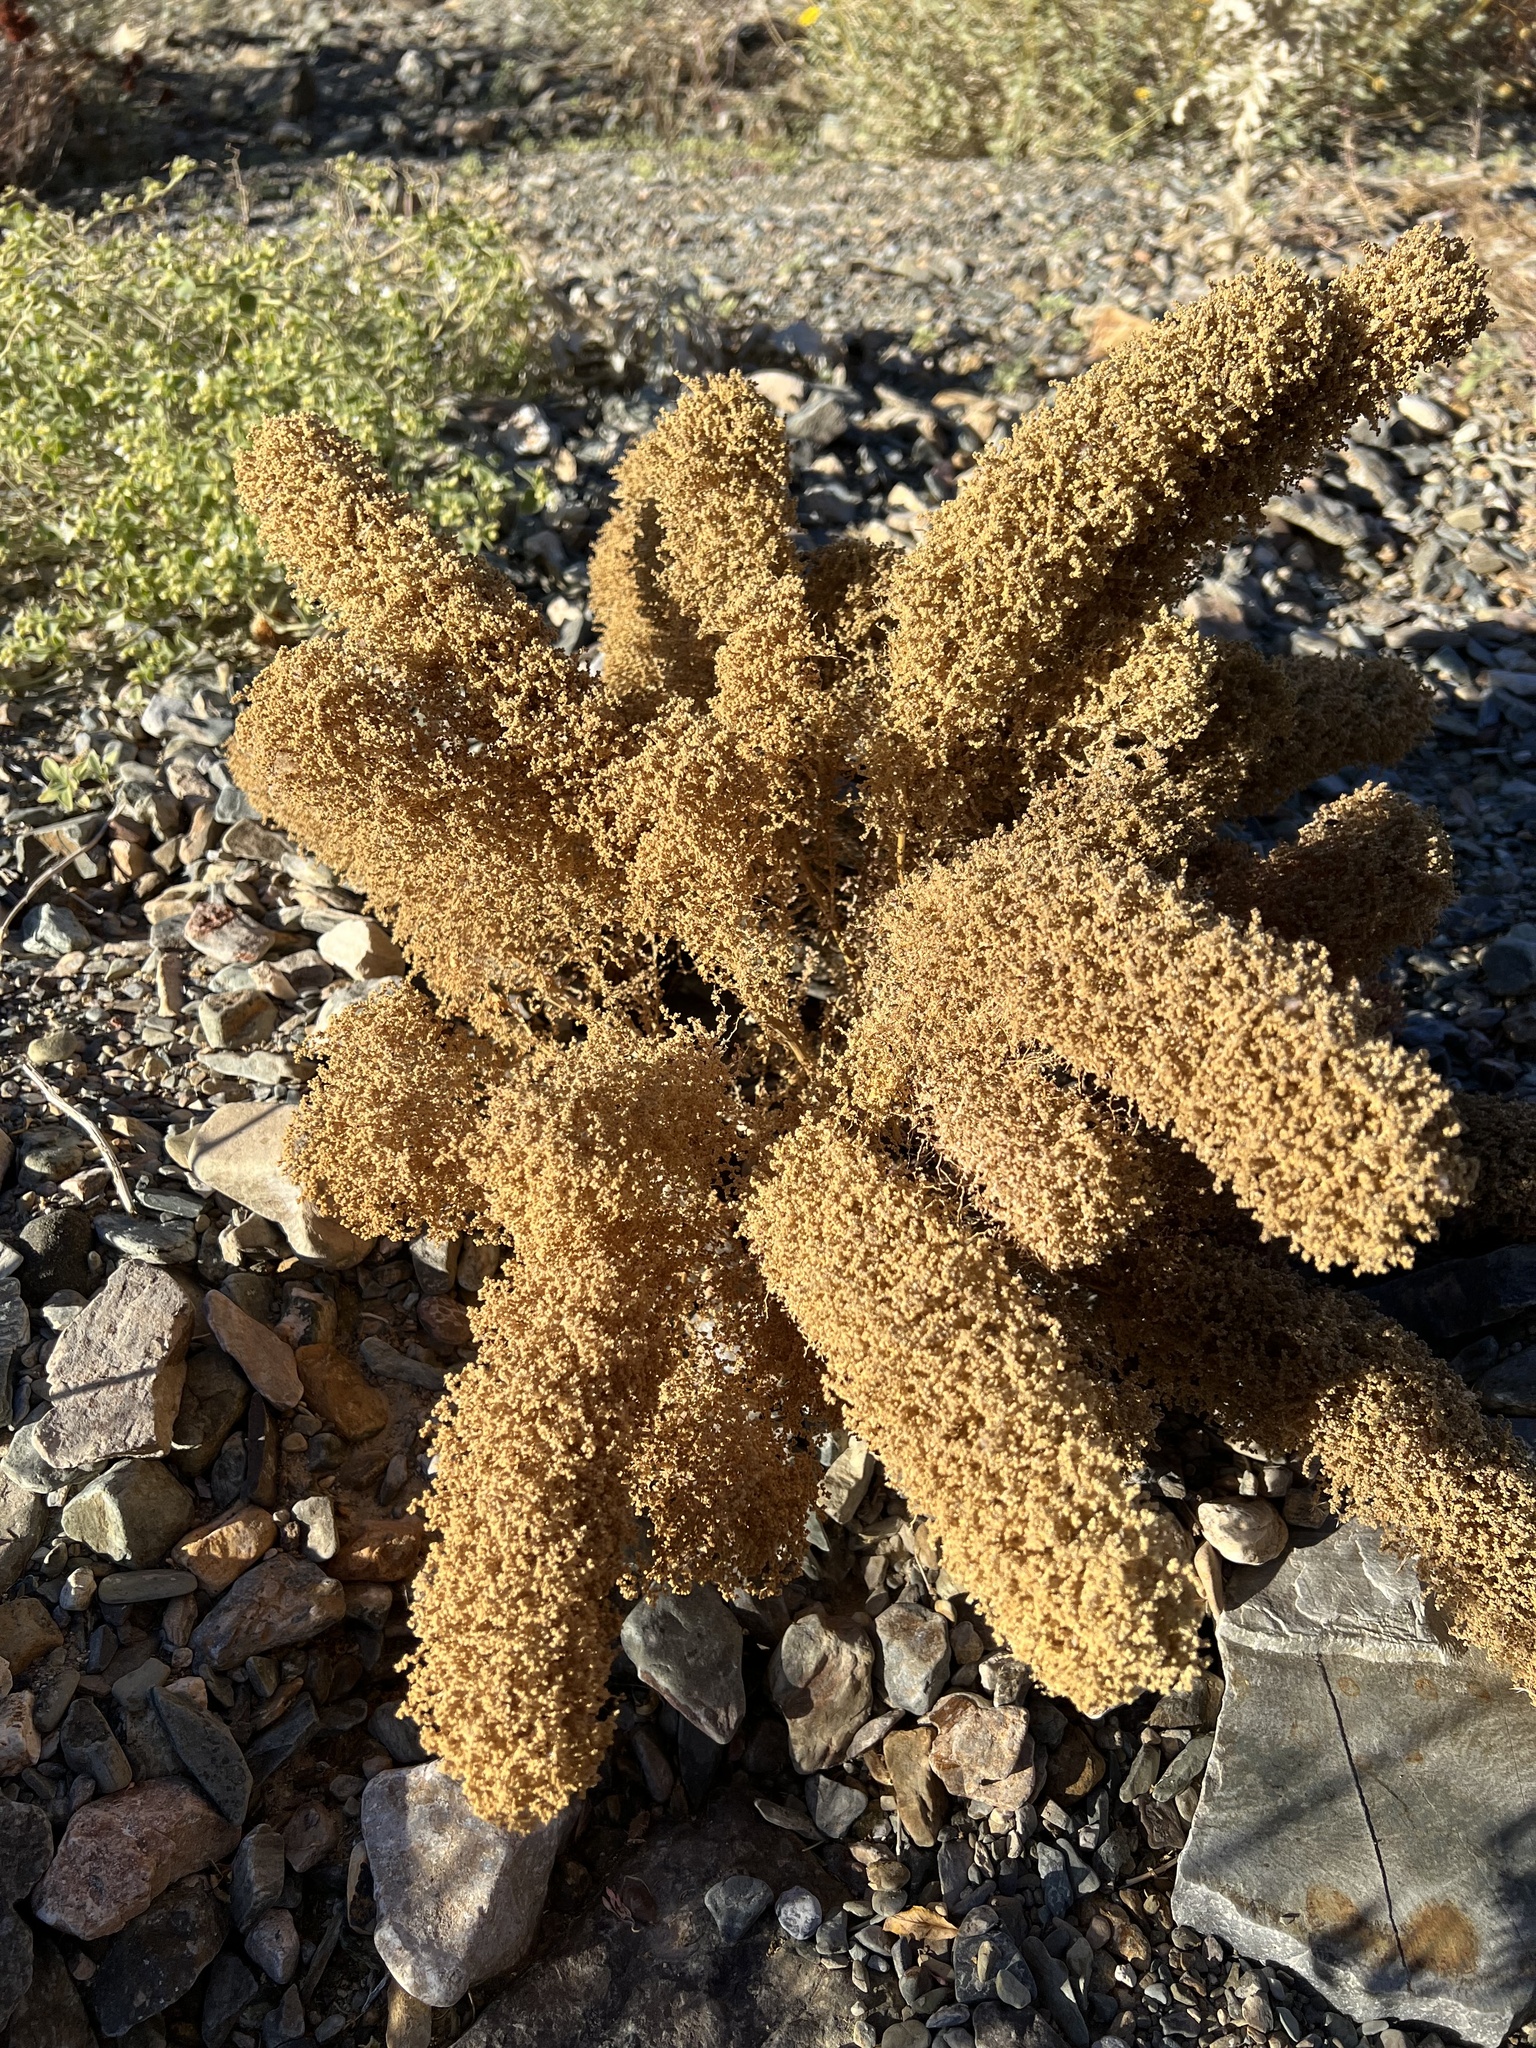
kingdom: Plantae
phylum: Tracheophyta
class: Magnoliopsida
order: Caryophyllales
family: Amaranthaceae
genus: Dysphania
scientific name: Dysphania botrys
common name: Feather-geranium
